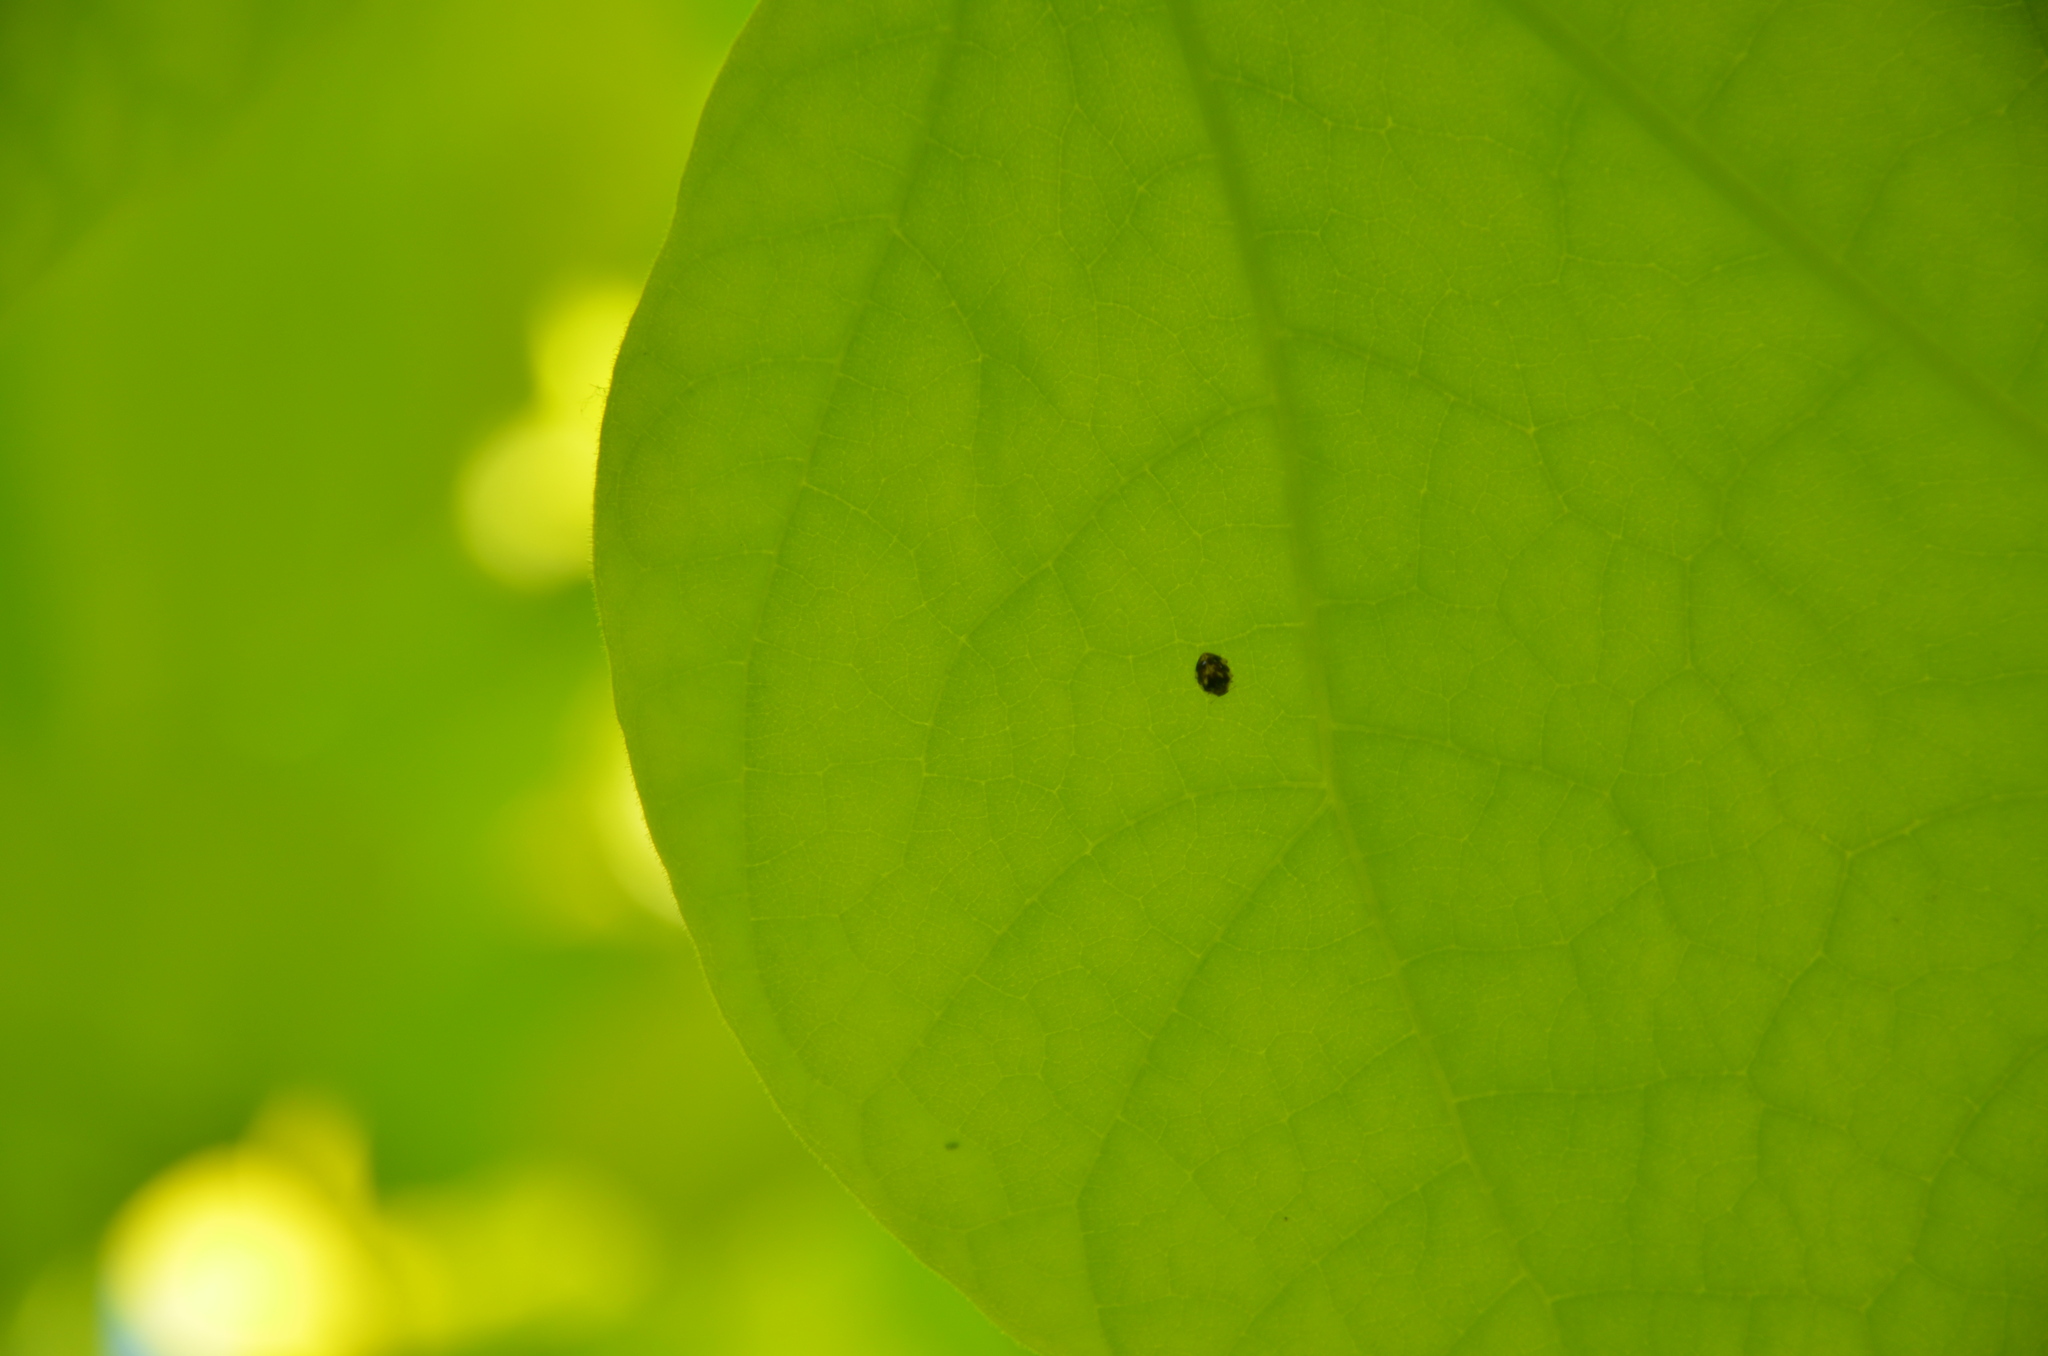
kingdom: Animalia
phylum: Arthropoda
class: Insecta
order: Coleoptera
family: Coccinellidae
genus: Psyllobora
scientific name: Psyllobora vigintimaculata
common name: Ladybird beetle
